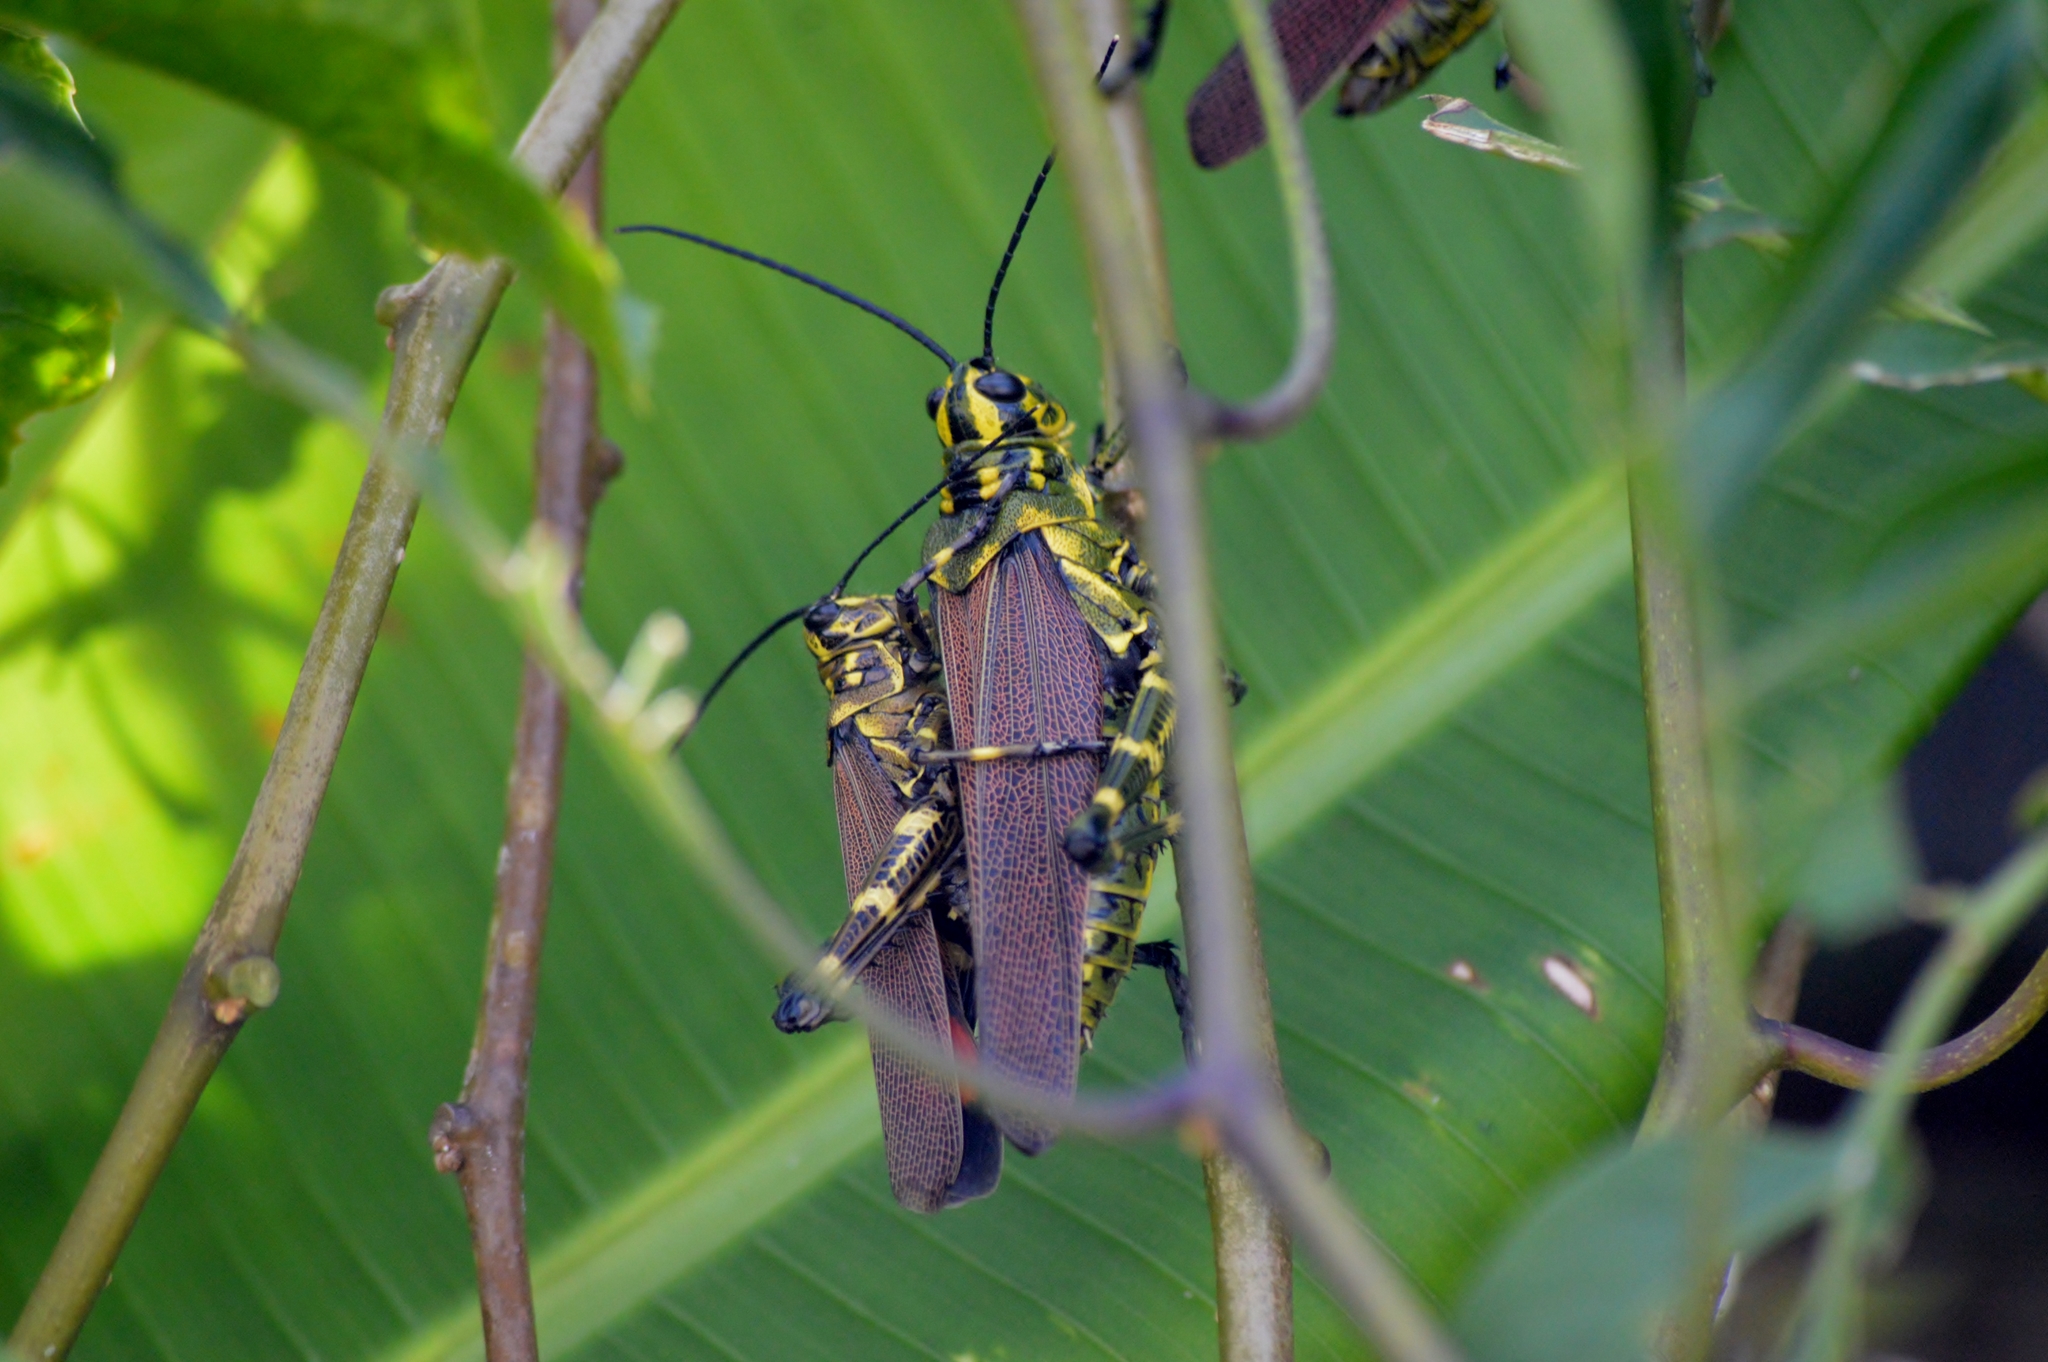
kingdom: Animalia
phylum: Arthropoda
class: Insecta
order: Orthoptera
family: Romaleidae
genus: Chromacris
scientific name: Chromacris speciosa
